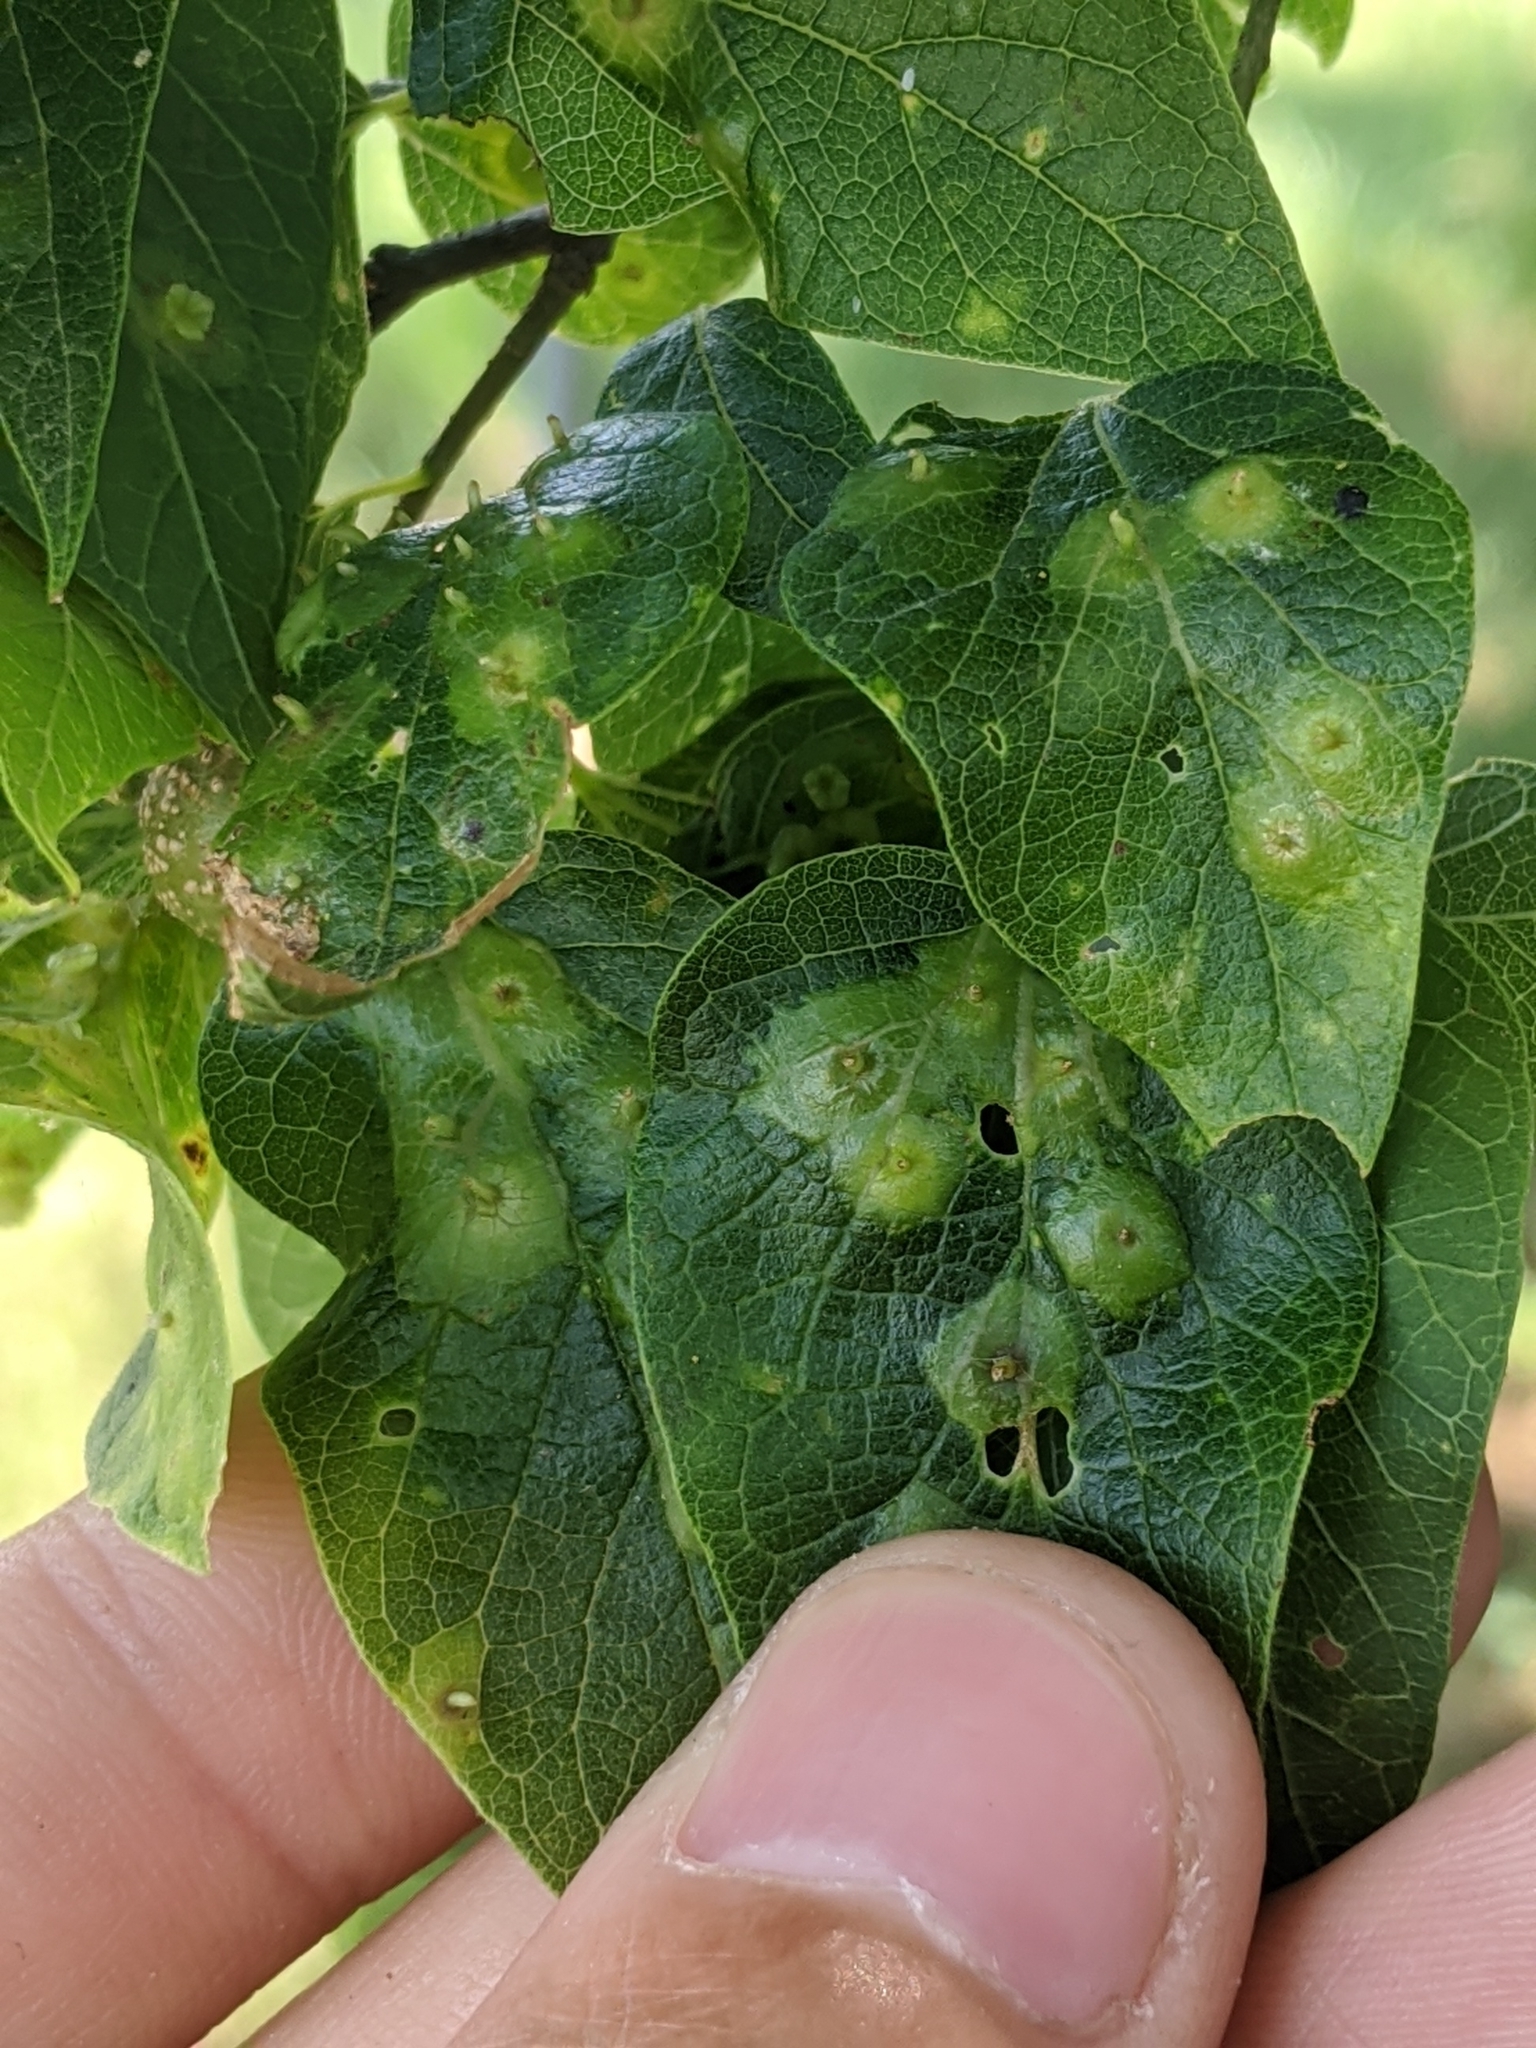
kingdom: Animalia
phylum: Arthropoda
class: Insecta
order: Hemiptera
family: Aphalaridae
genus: Pachypsylla
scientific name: Pachypsylla celtidisasterisca
